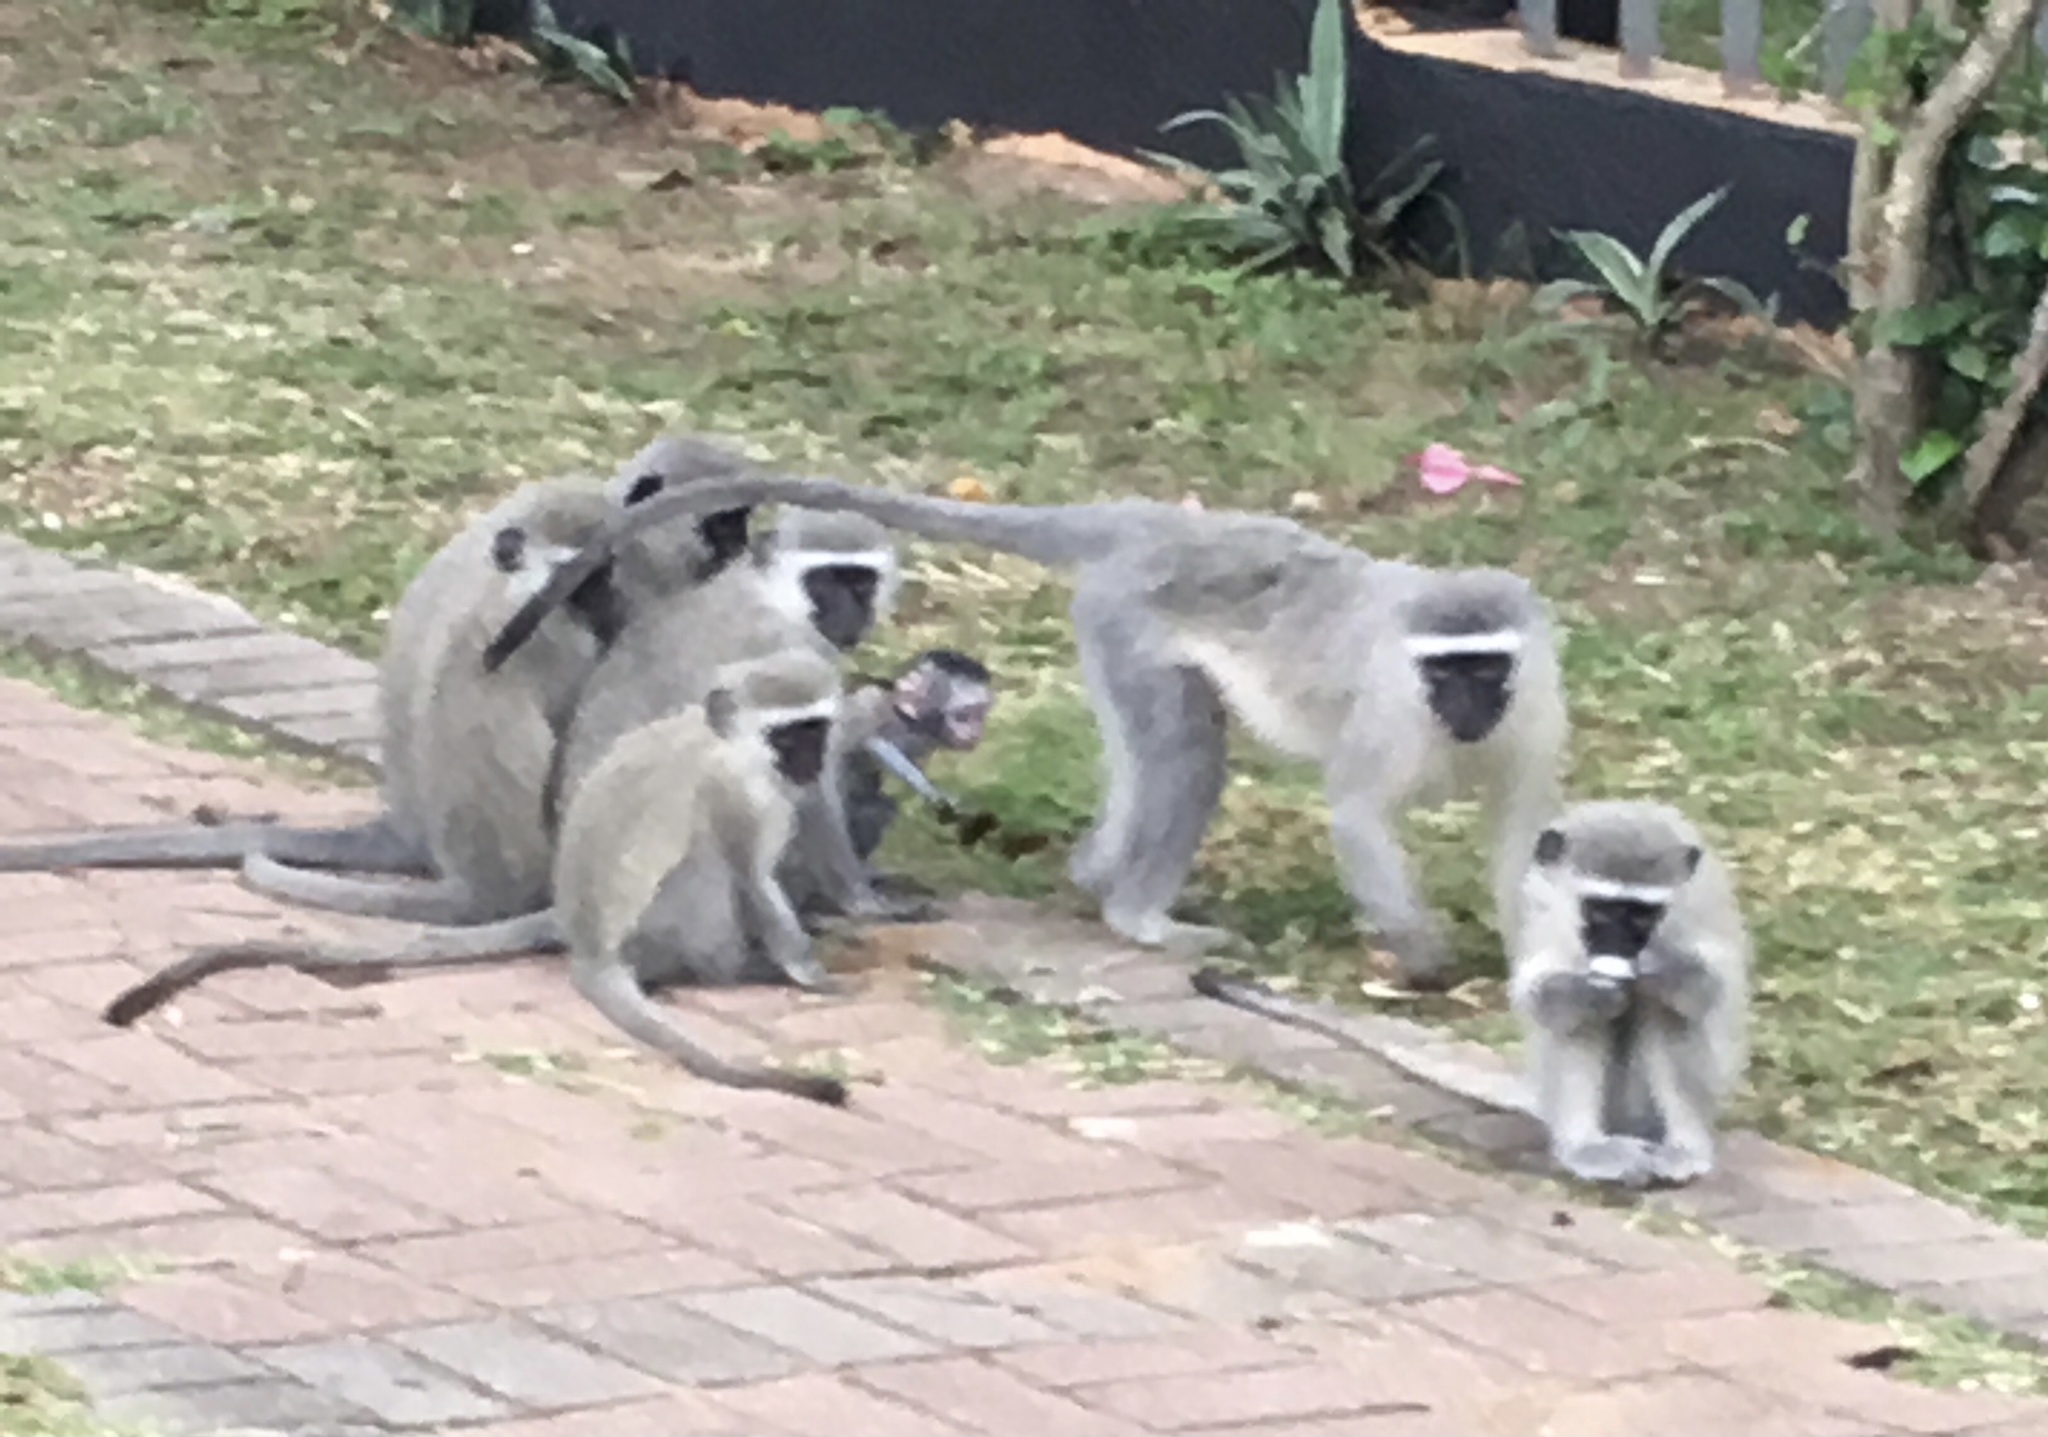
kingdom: Animalia
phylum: Chordata
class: Mammalia
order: Primates
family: Cercopithecidae
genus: Chlorocebus
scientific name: Chlorocebus pygerythrus
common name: Vervet monkey
